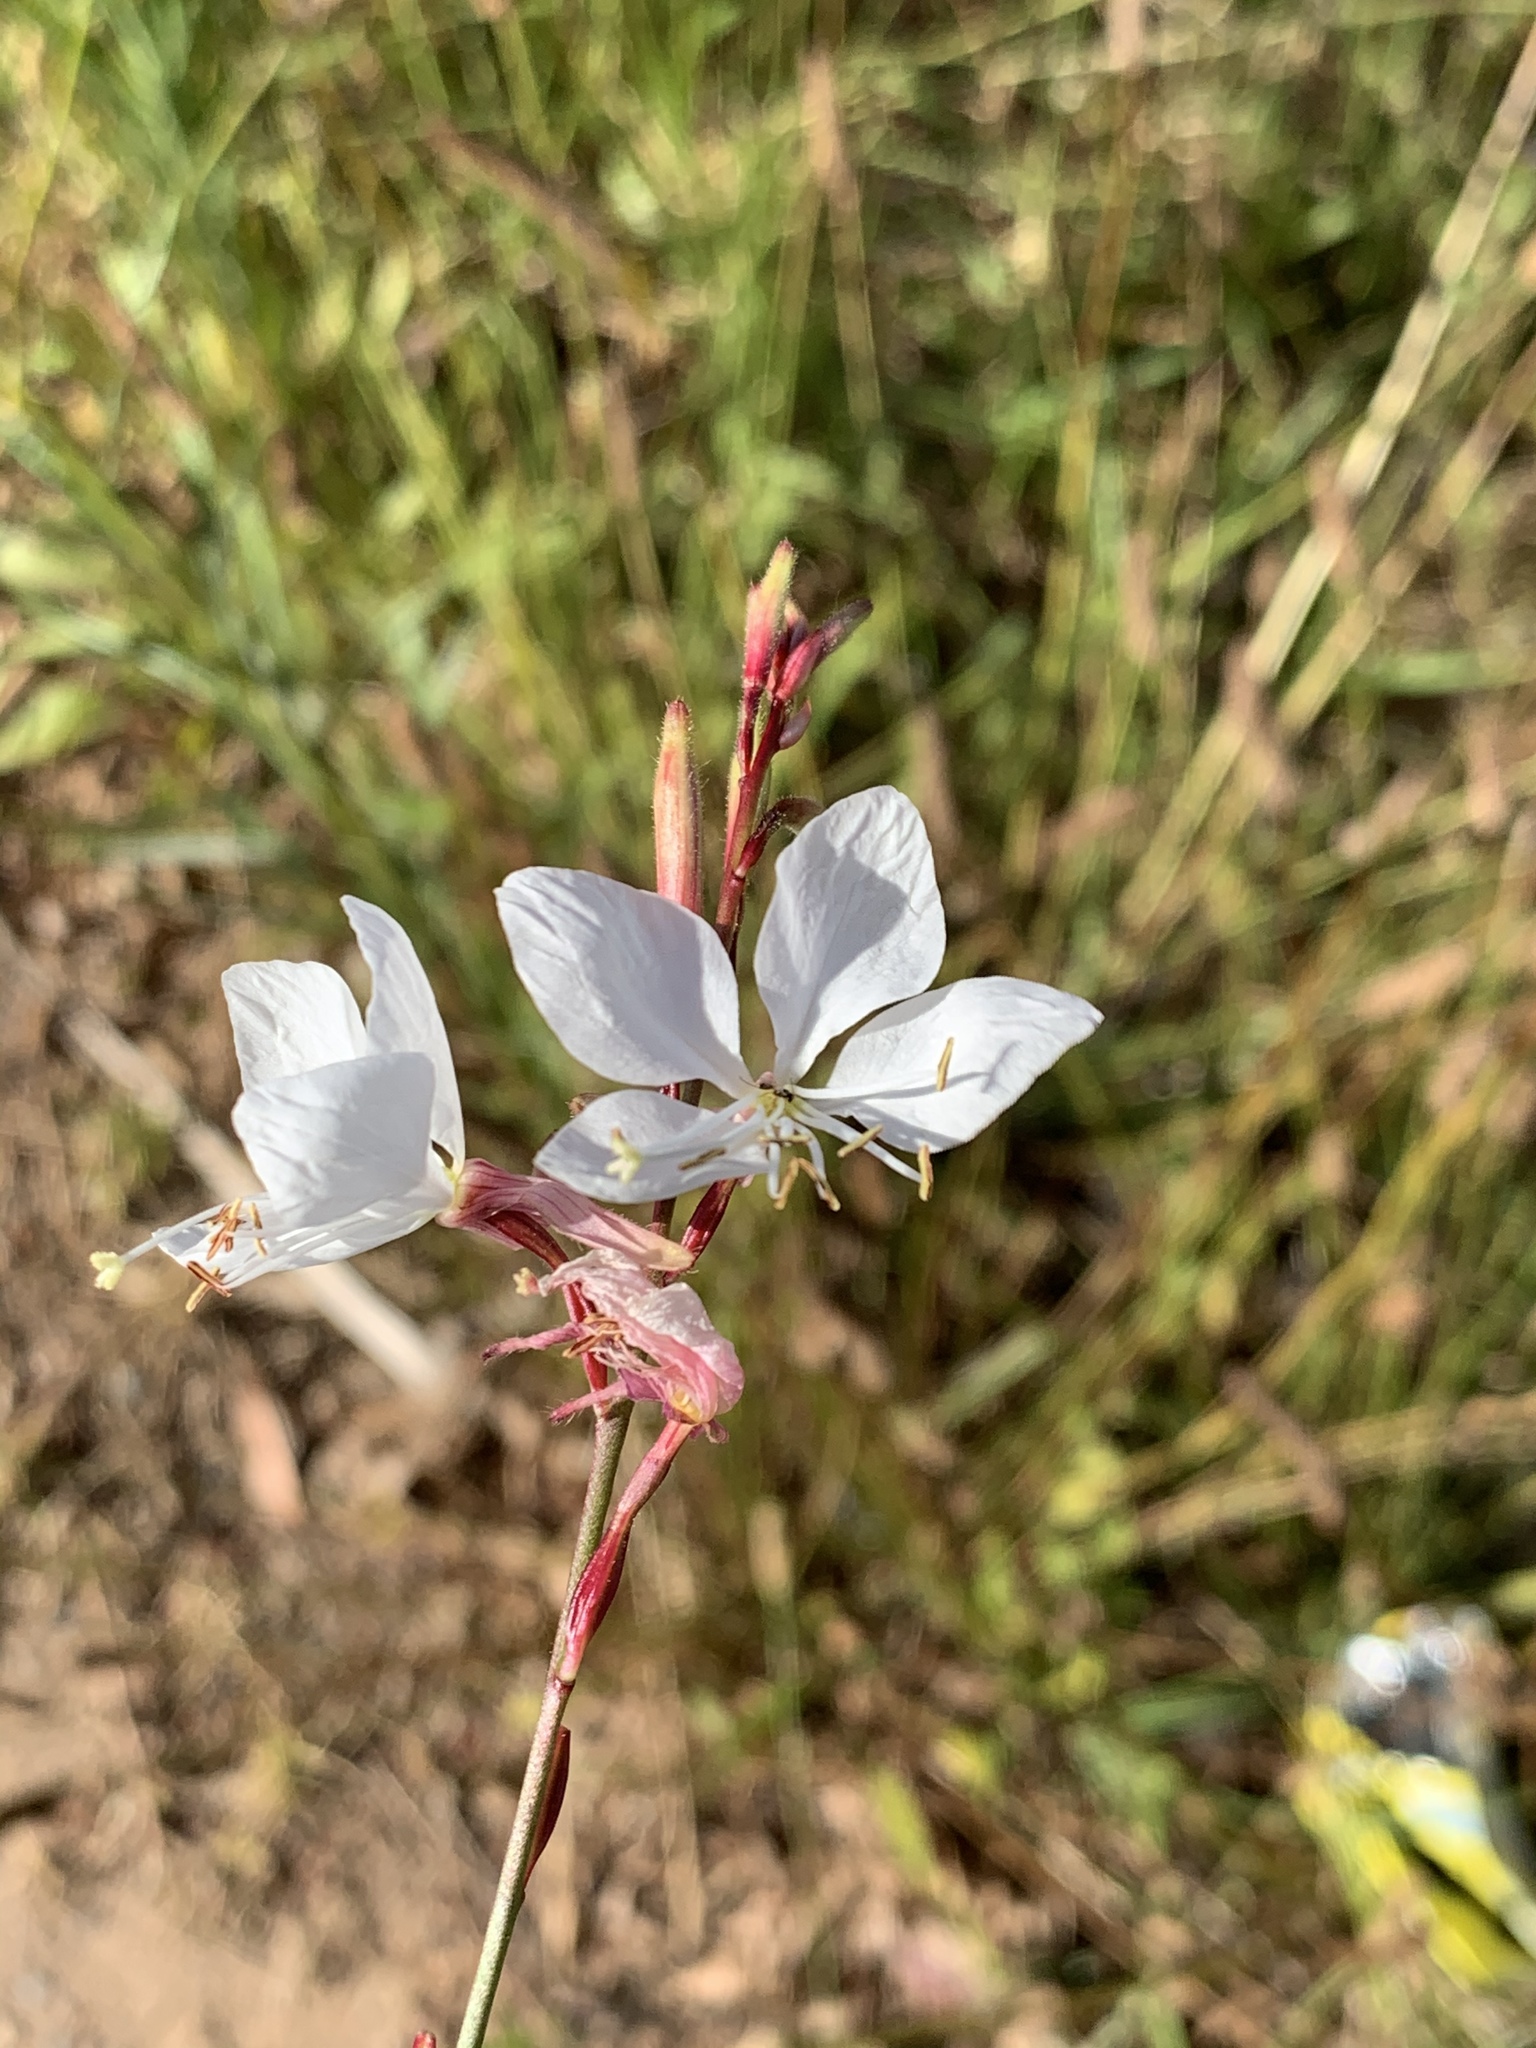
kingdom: Plantae
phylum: Tracheophyta
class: Magnoliopsida
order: Myrtales
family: Onagraceae
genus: Oenothera
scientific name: Oenothera lindheimeri
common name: Lindheimer's beeblossom
